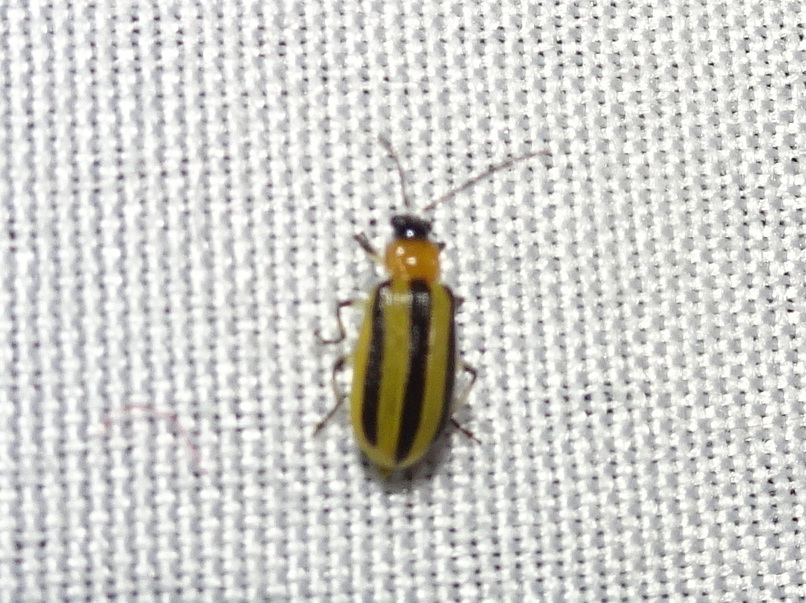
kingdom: Animalia
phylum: Arthropoda
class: Insecta
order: Coleoptera
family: Chrysomelidae
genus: Acalymma
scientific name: Acalymma vittatum
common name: Striped cucumber beetle
